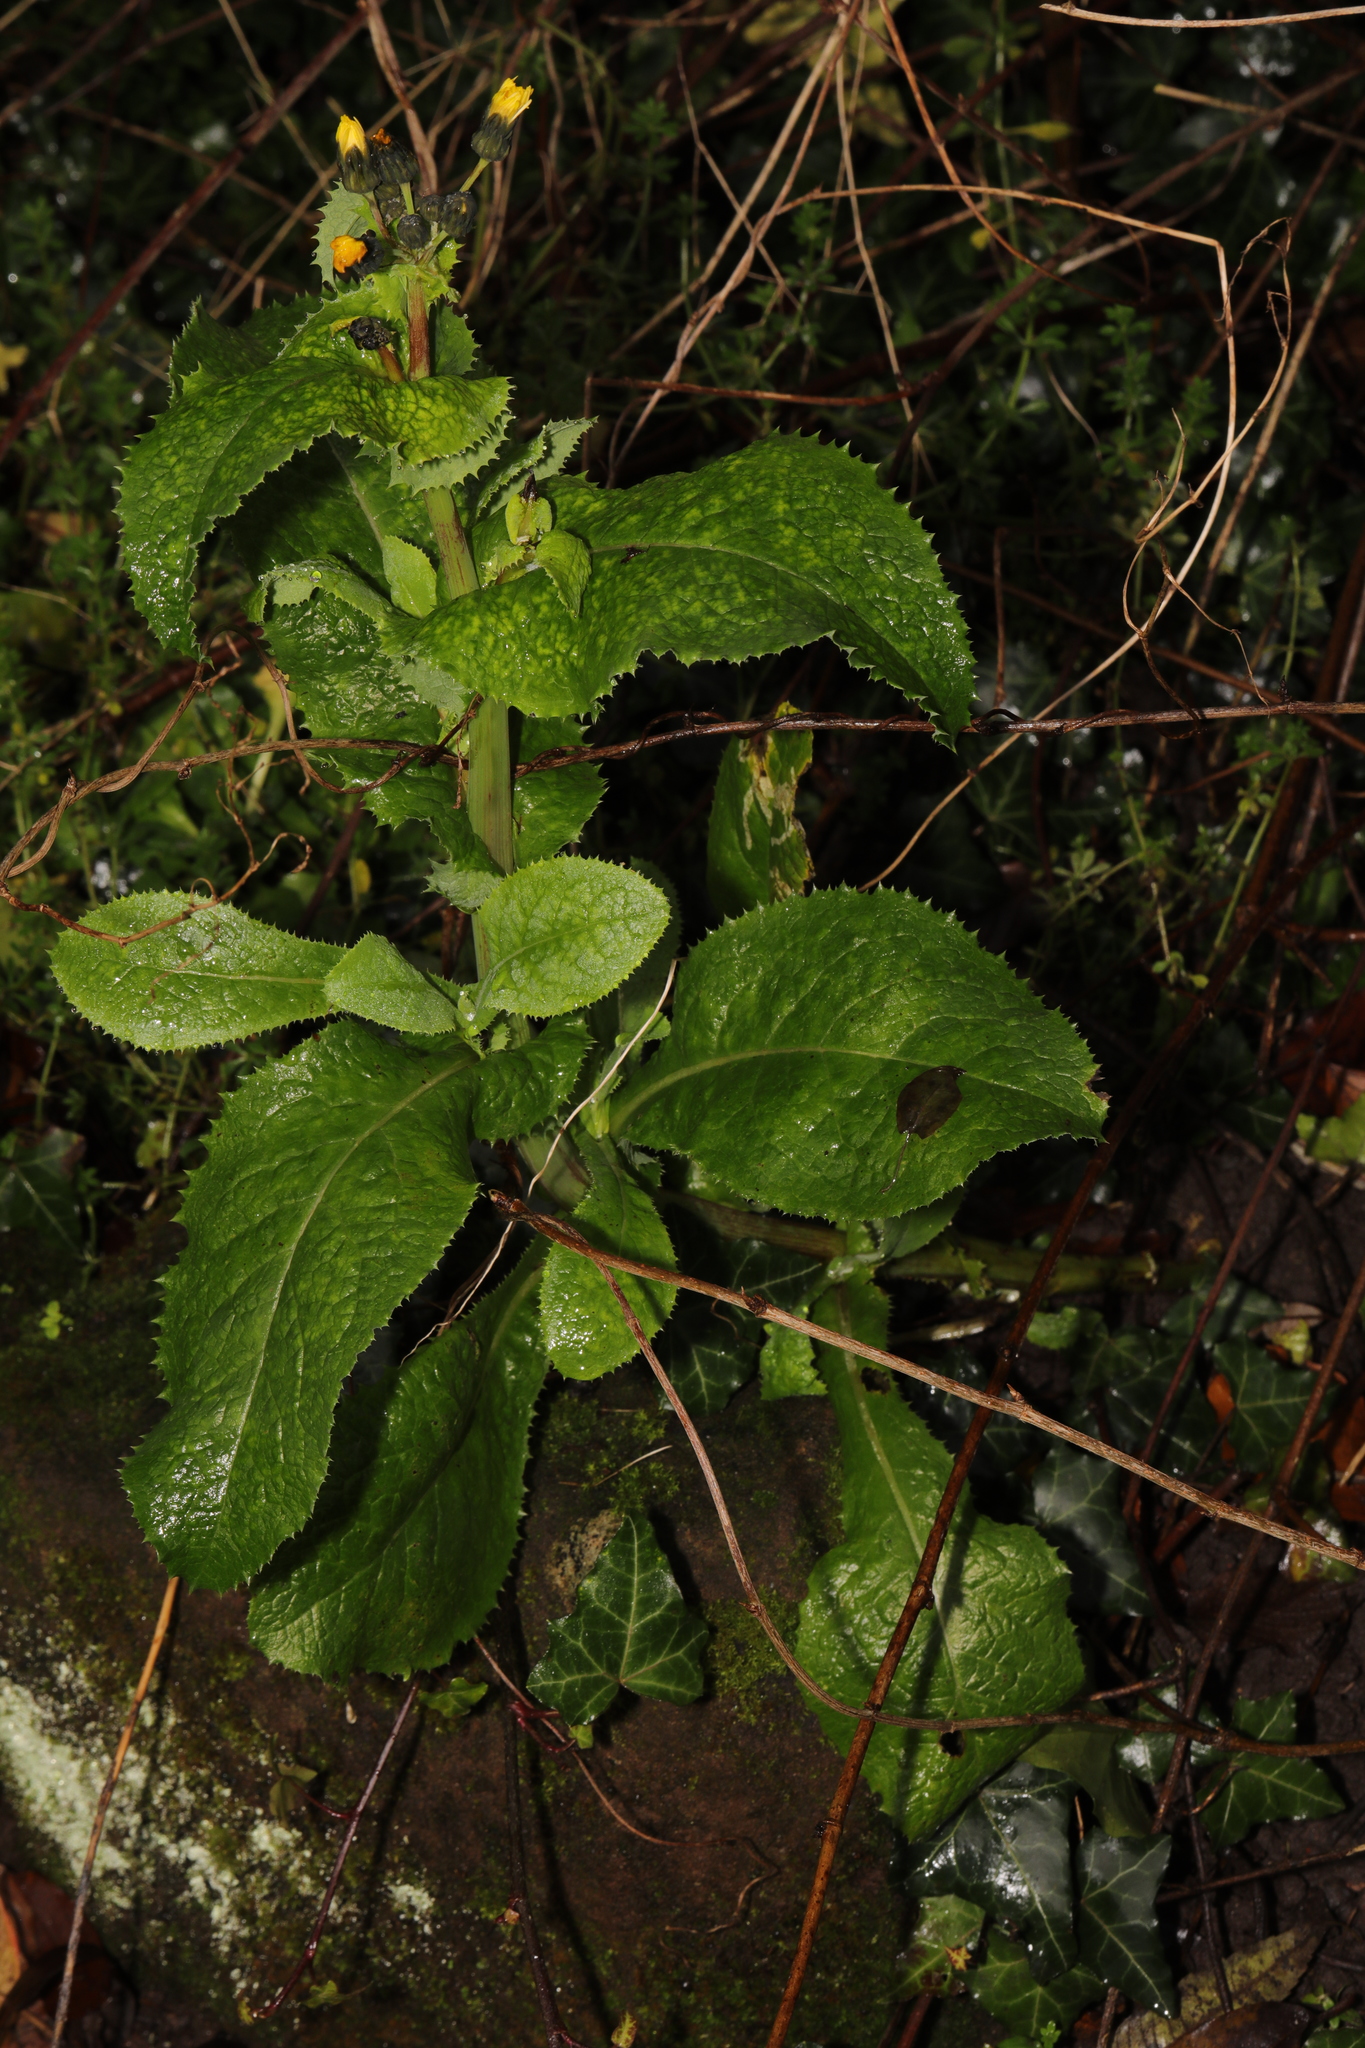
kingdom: Plantae
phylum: Tracheophyta
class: Magnoliopsida
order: Asterales
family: Asteraceae
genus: Sonchus
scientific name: Sonchus asper
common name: Prickly sow-thistle
